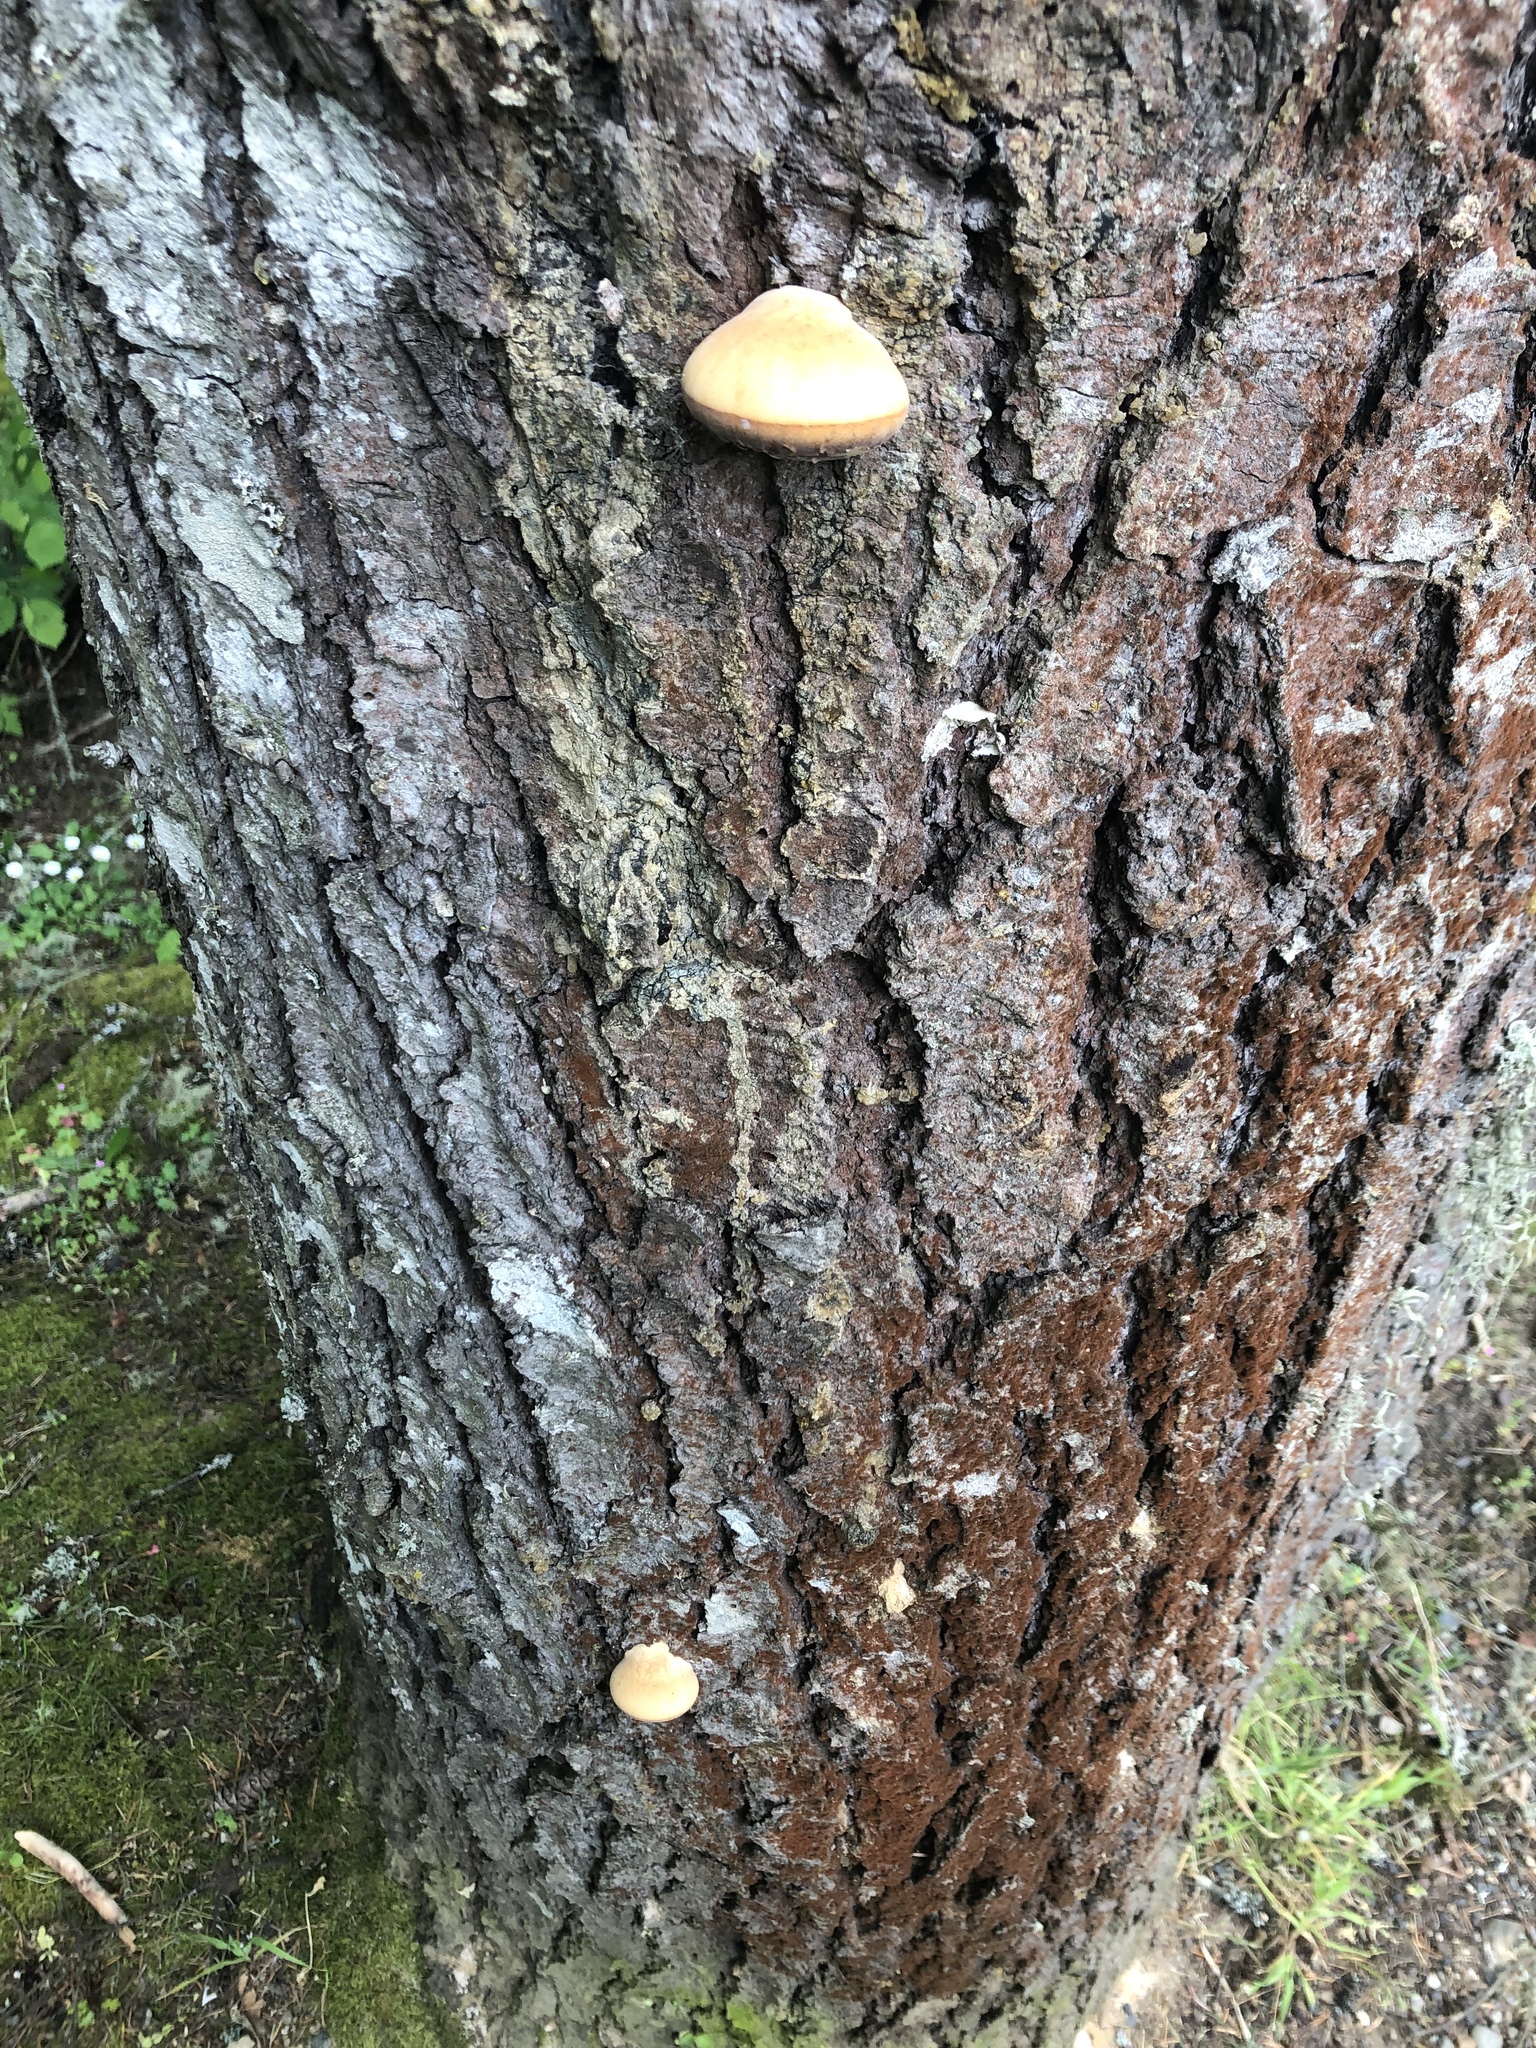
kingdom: Fungi
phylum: Basidiomycota
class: Agaricomycetes
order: Polyporales
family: Polyporaceae
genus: Cryptoporus
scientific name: Cryptoporus volvatus
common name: Veiled polypore
